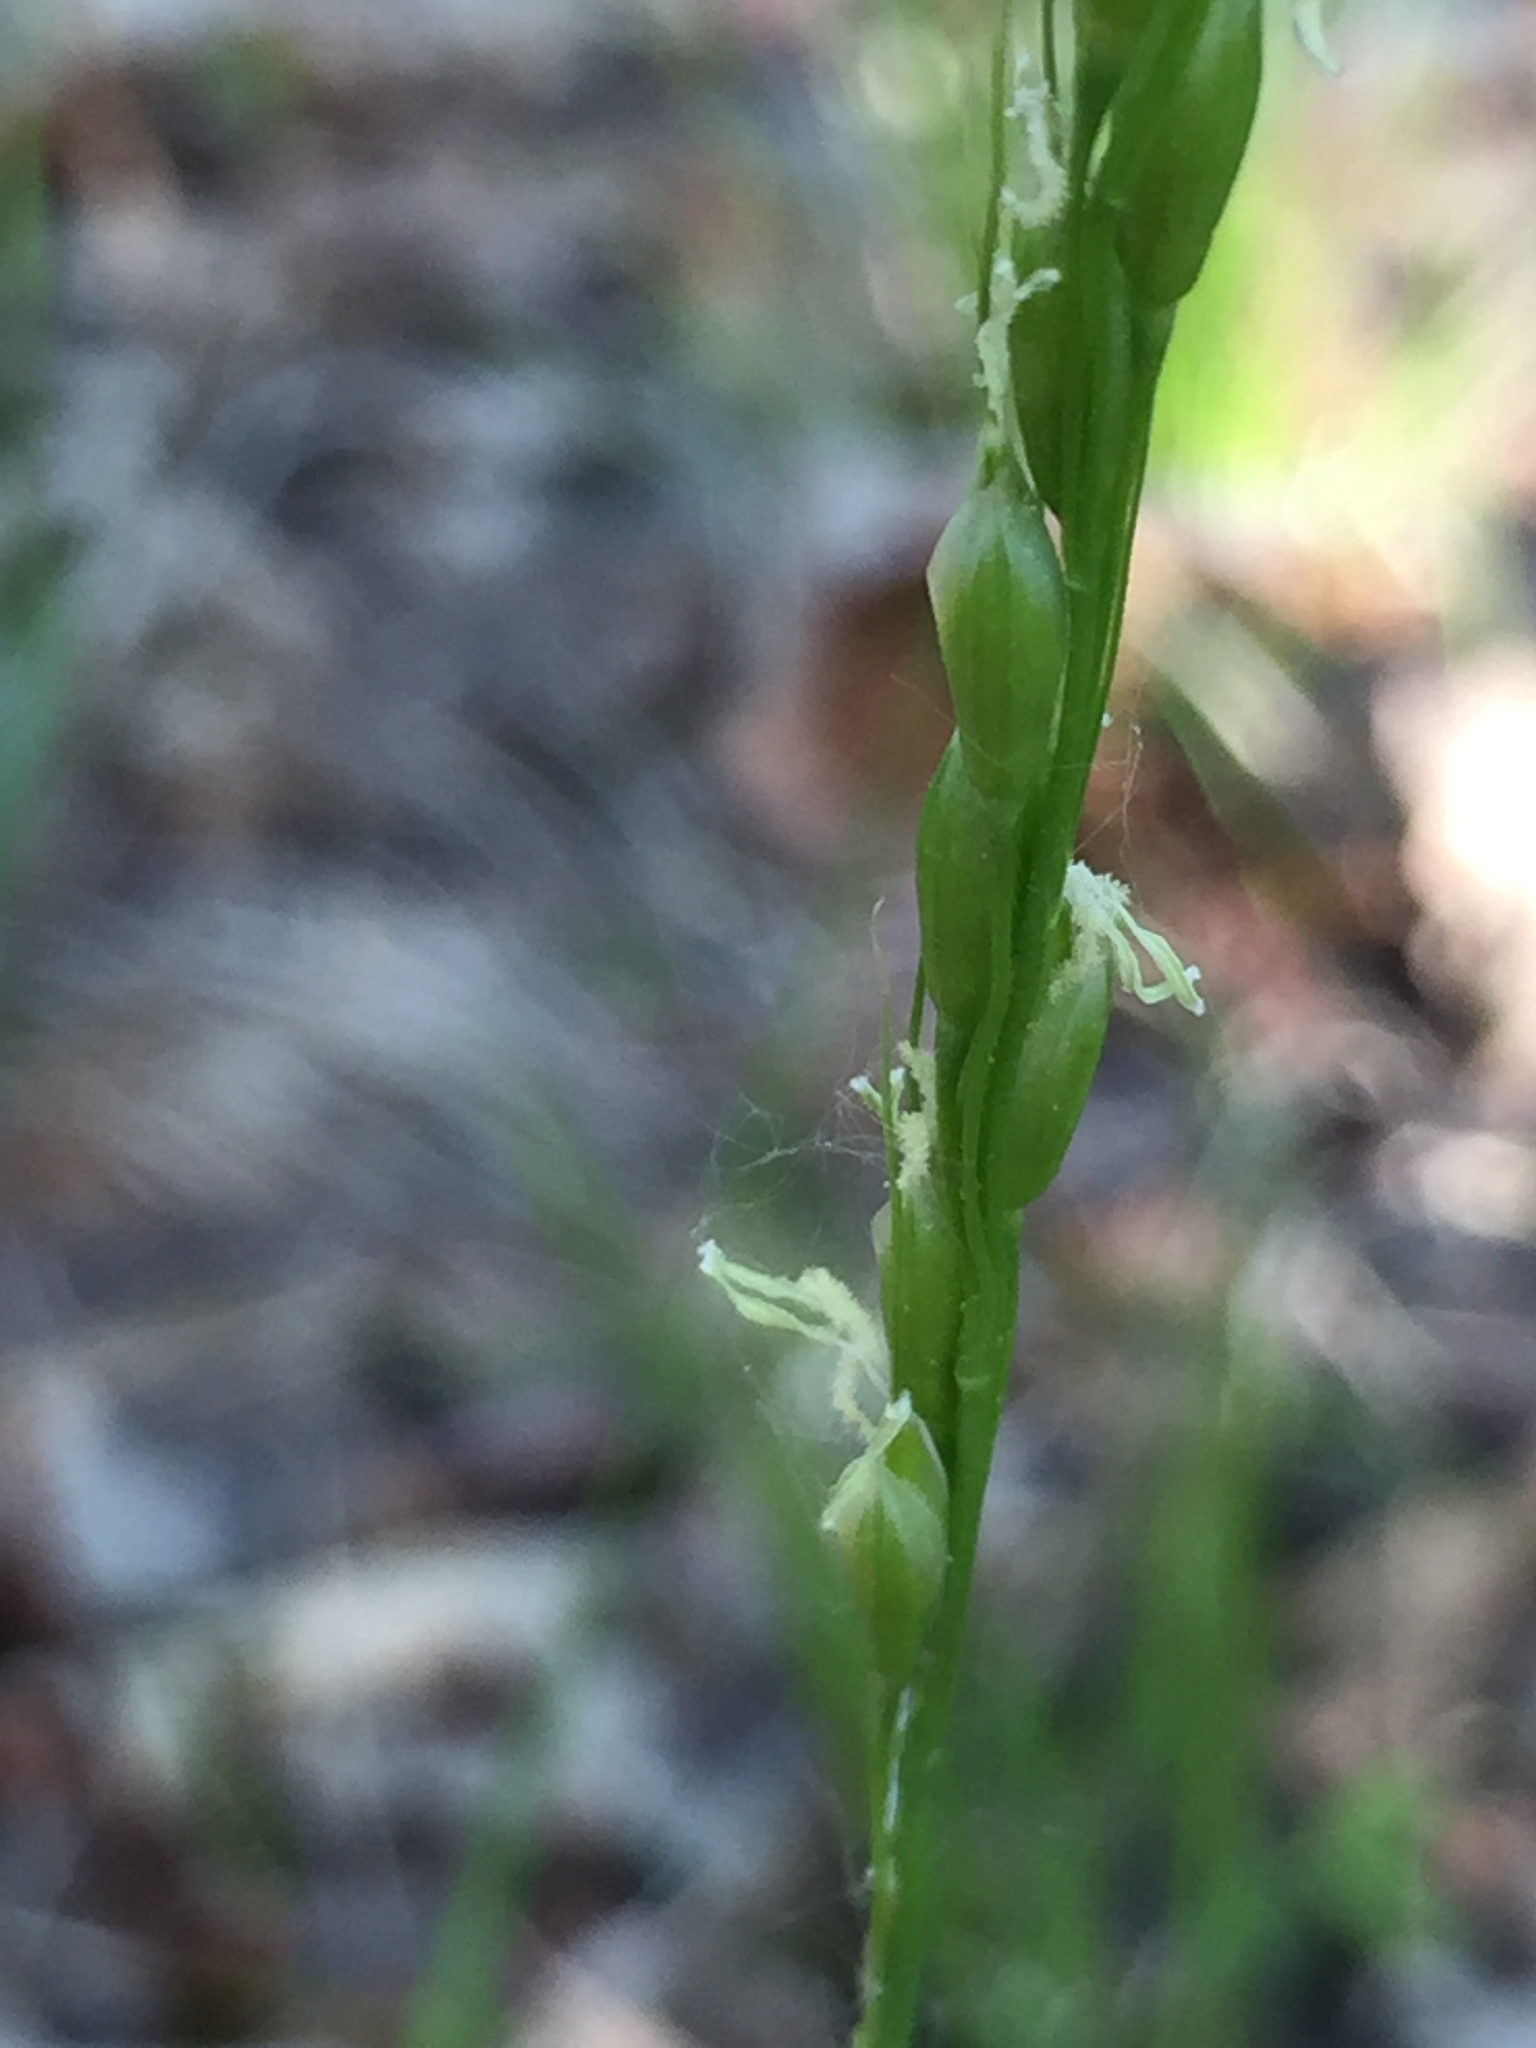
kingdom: Plantae
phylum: Tracheophyta
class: Liliopsida
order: Poales
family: Poaceae
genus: Oryzopsis
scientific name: Oryzopsis asperifolia
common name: Rough-leaved mountain rice
